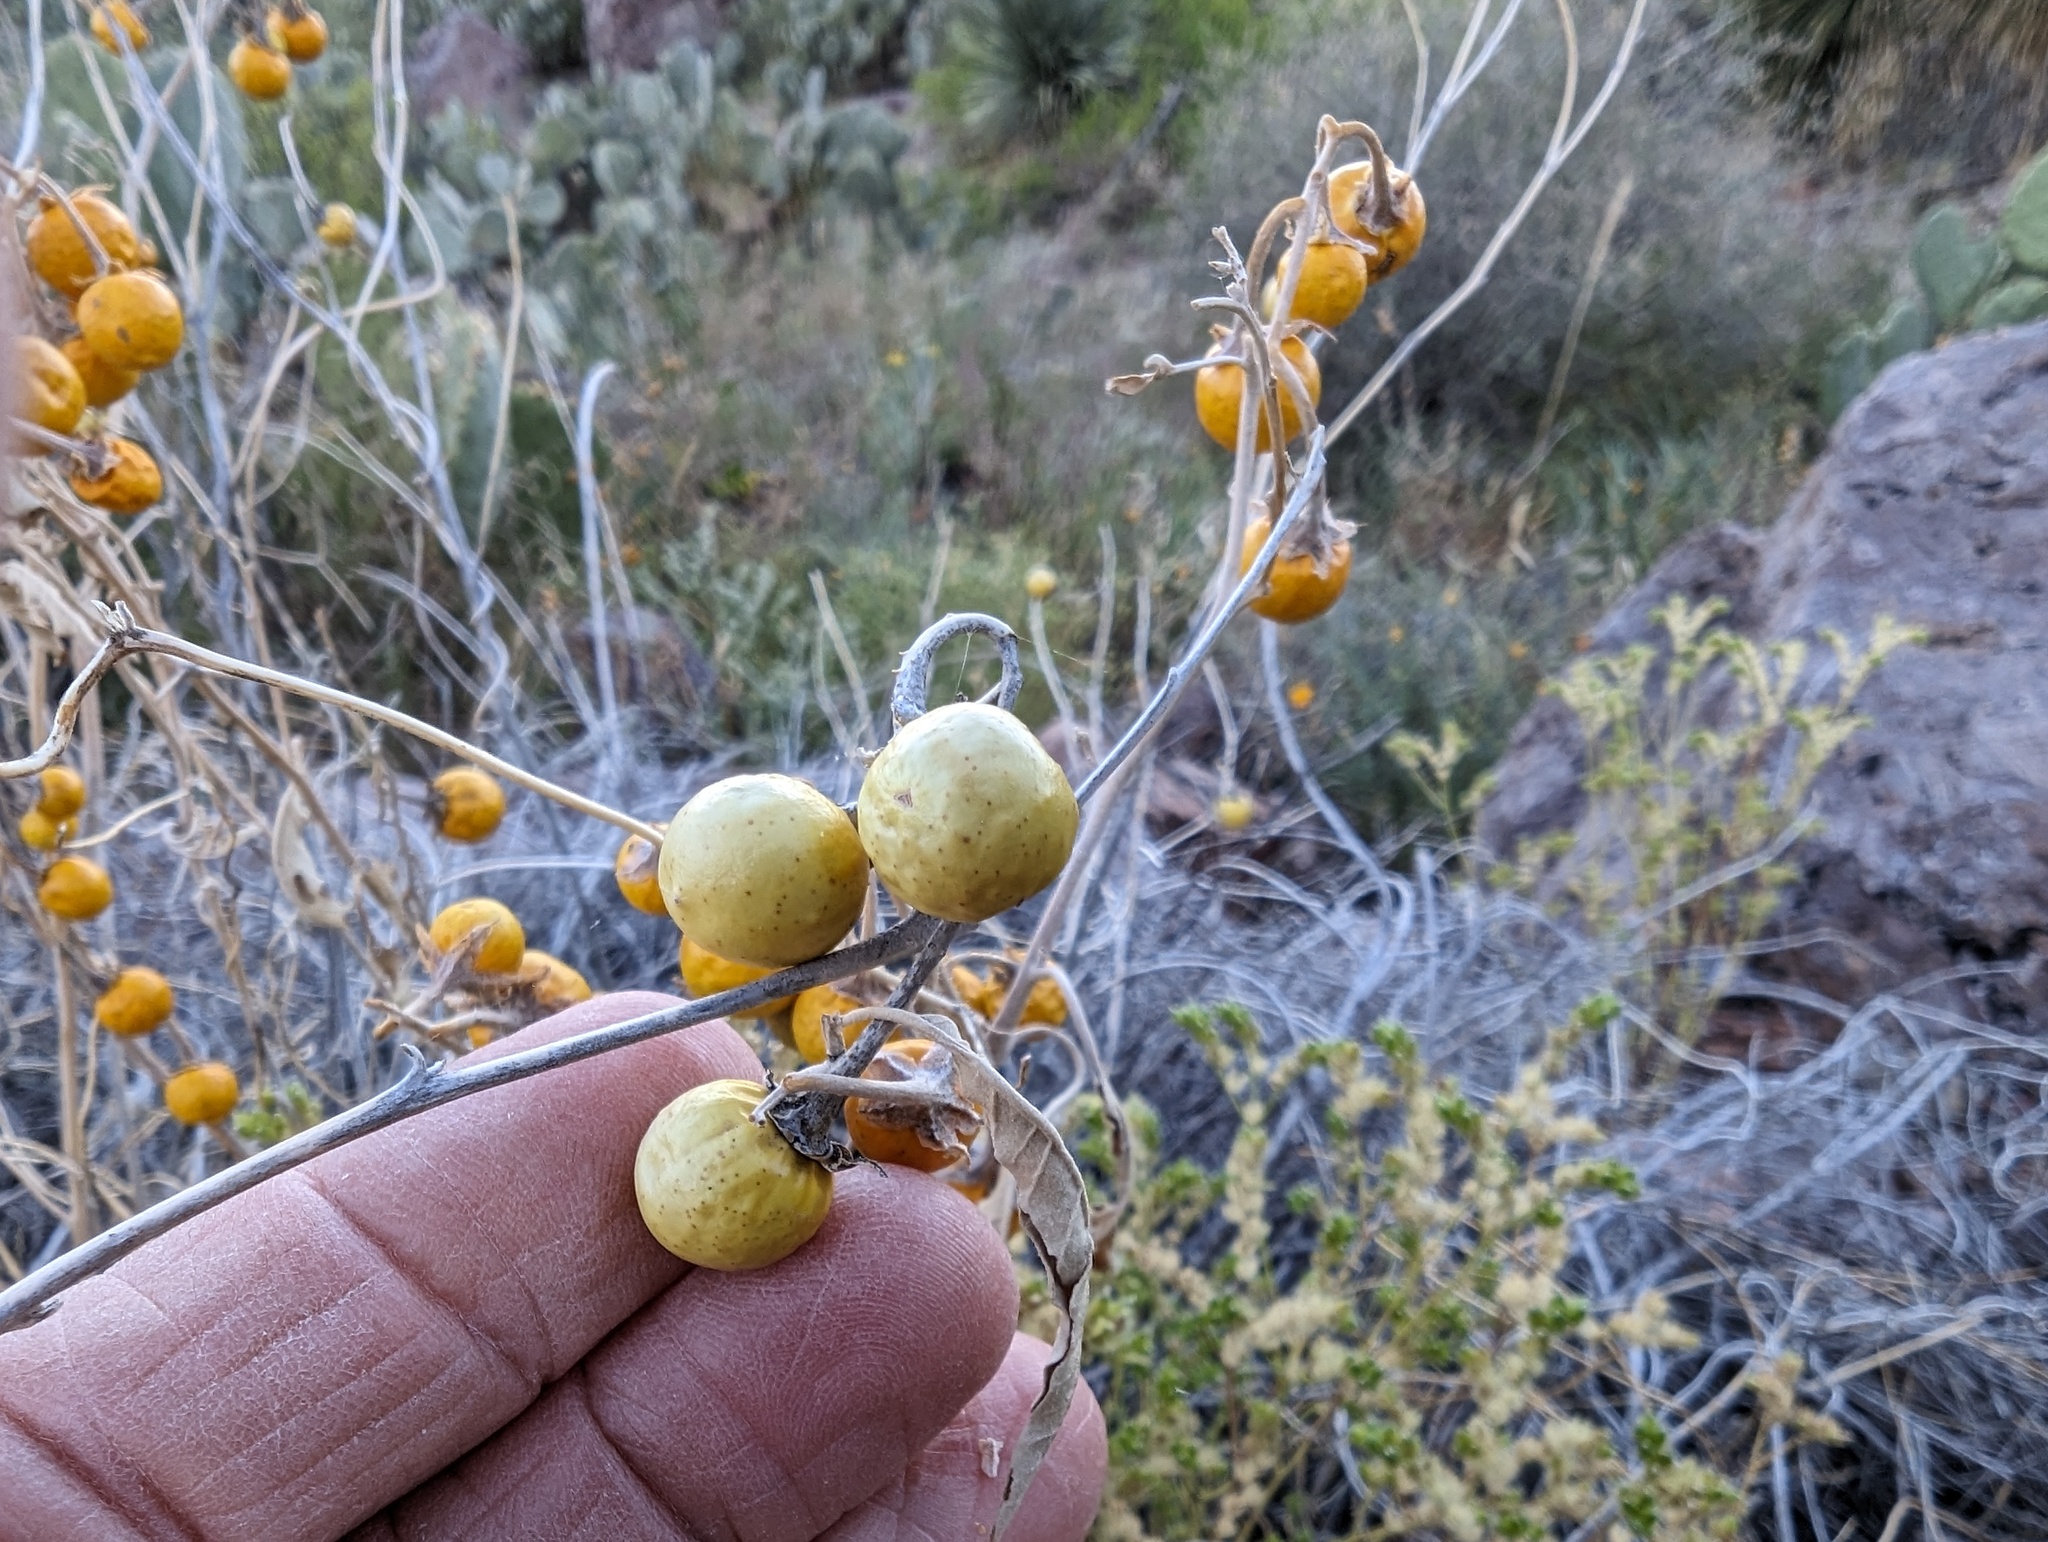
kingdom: Plantae
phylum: Tracheophyta
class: Magnoliopsida
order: Solanales
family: Solanaceae
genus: Solanum
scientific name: Solanum elaeagnifolium
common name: Silverleaf nightshade
